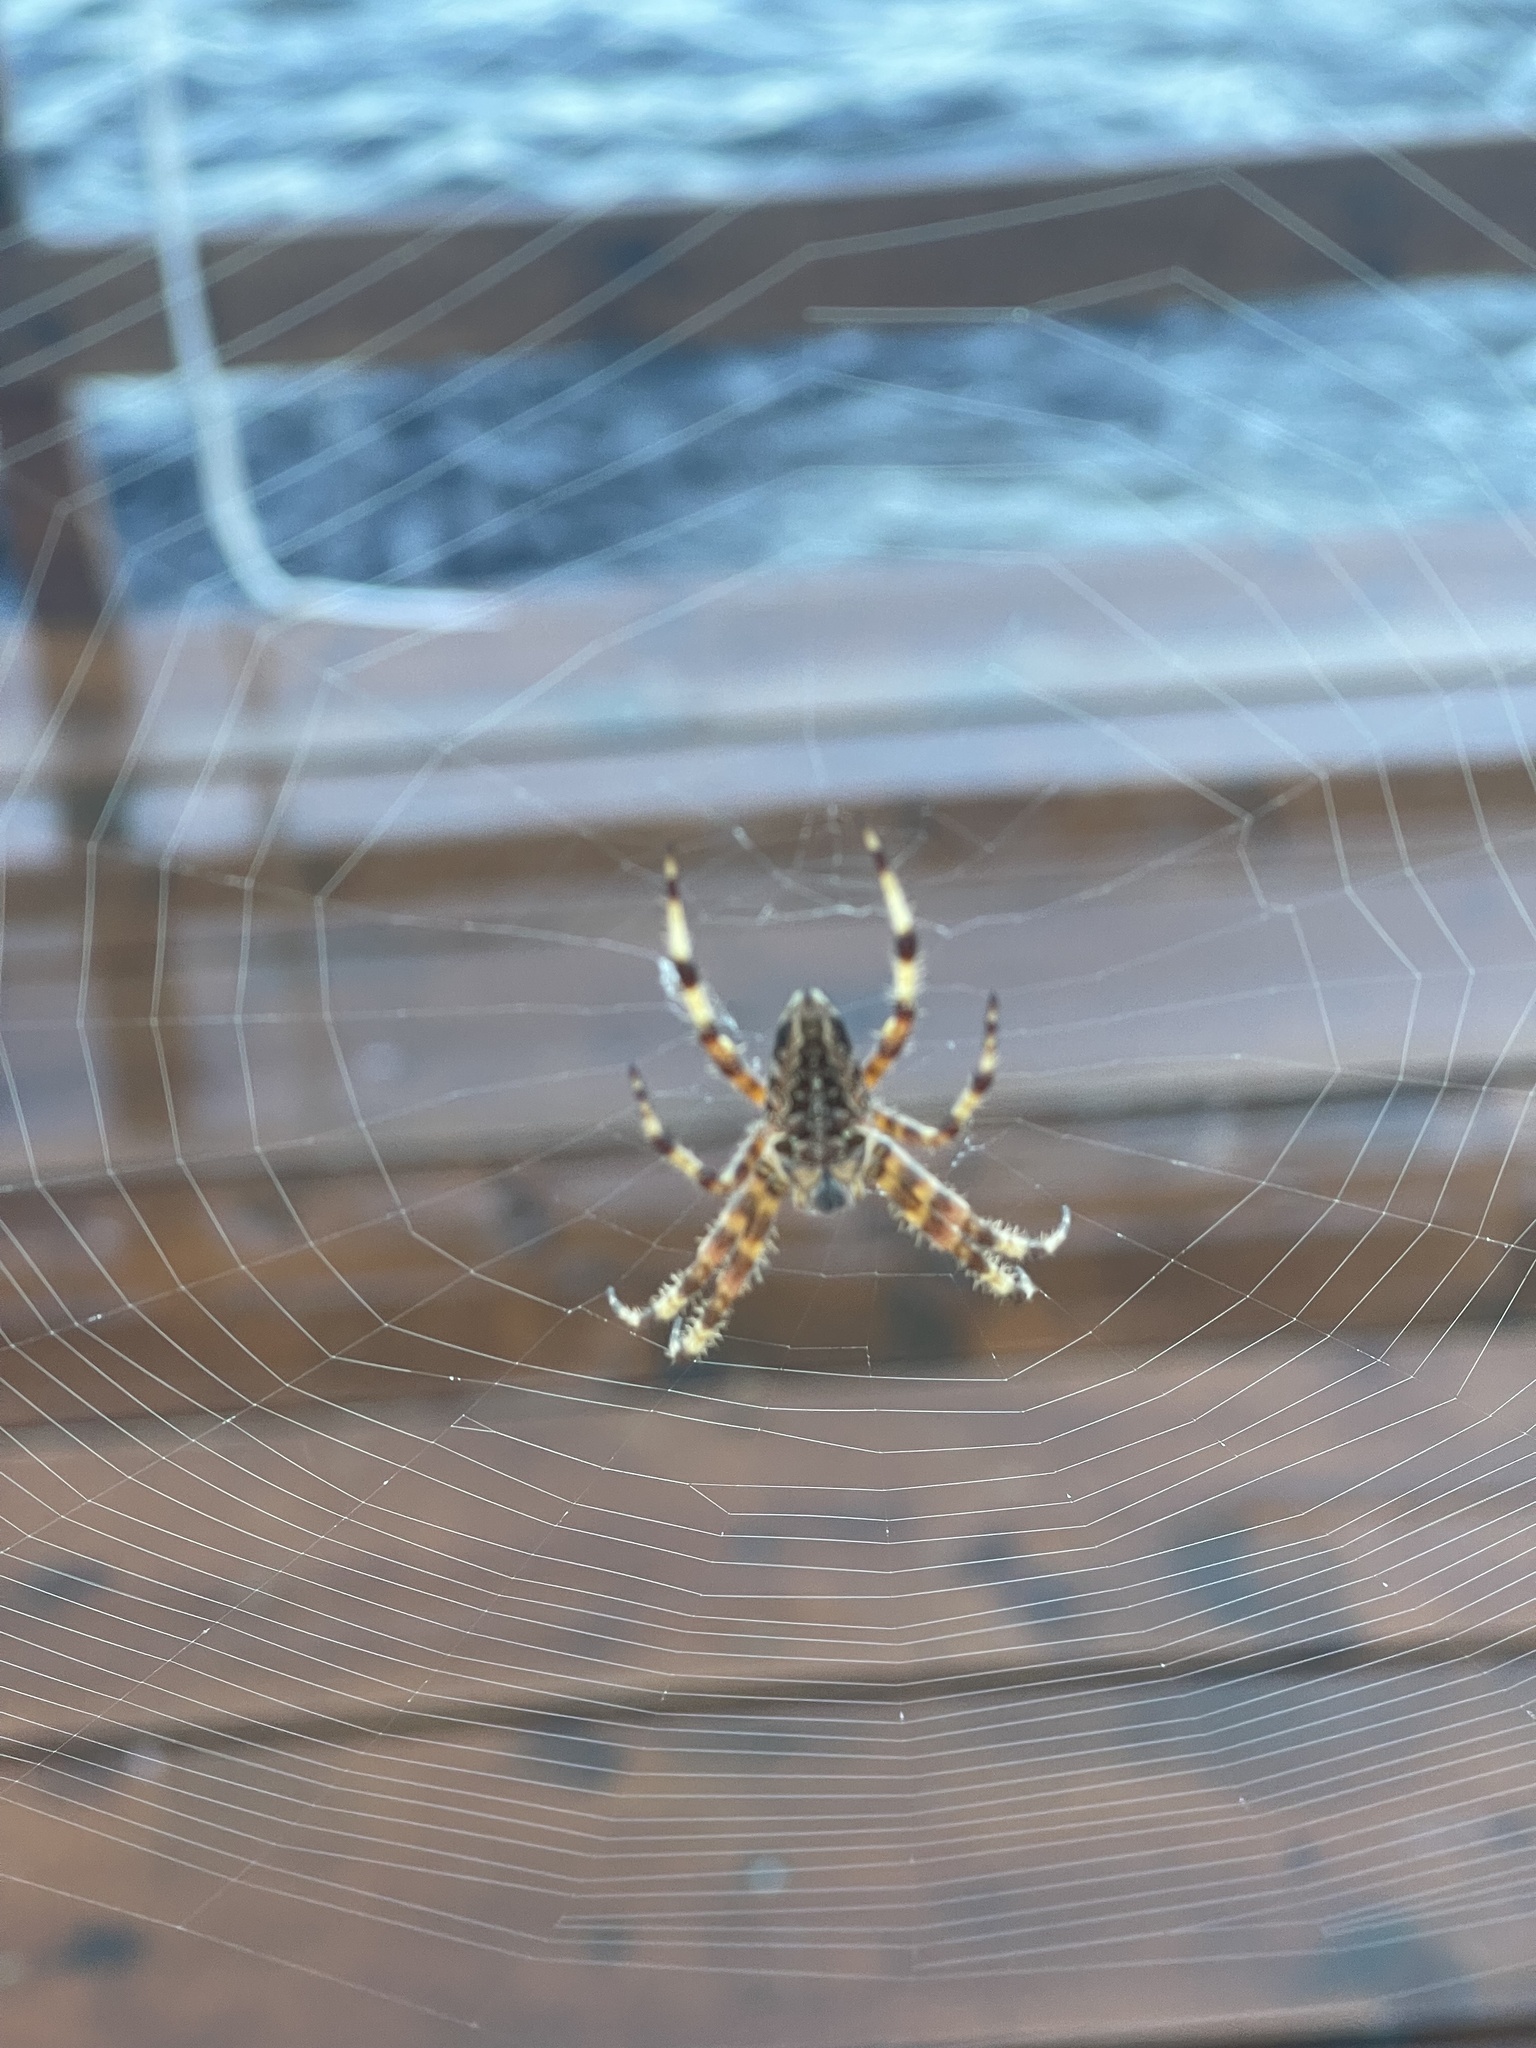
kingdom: Animalia
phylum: Arthropoda
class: Arachnida
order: Araneae
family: Araneidae
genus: Araneus
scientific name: Araneus diadematus
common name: Cross orbweaver
